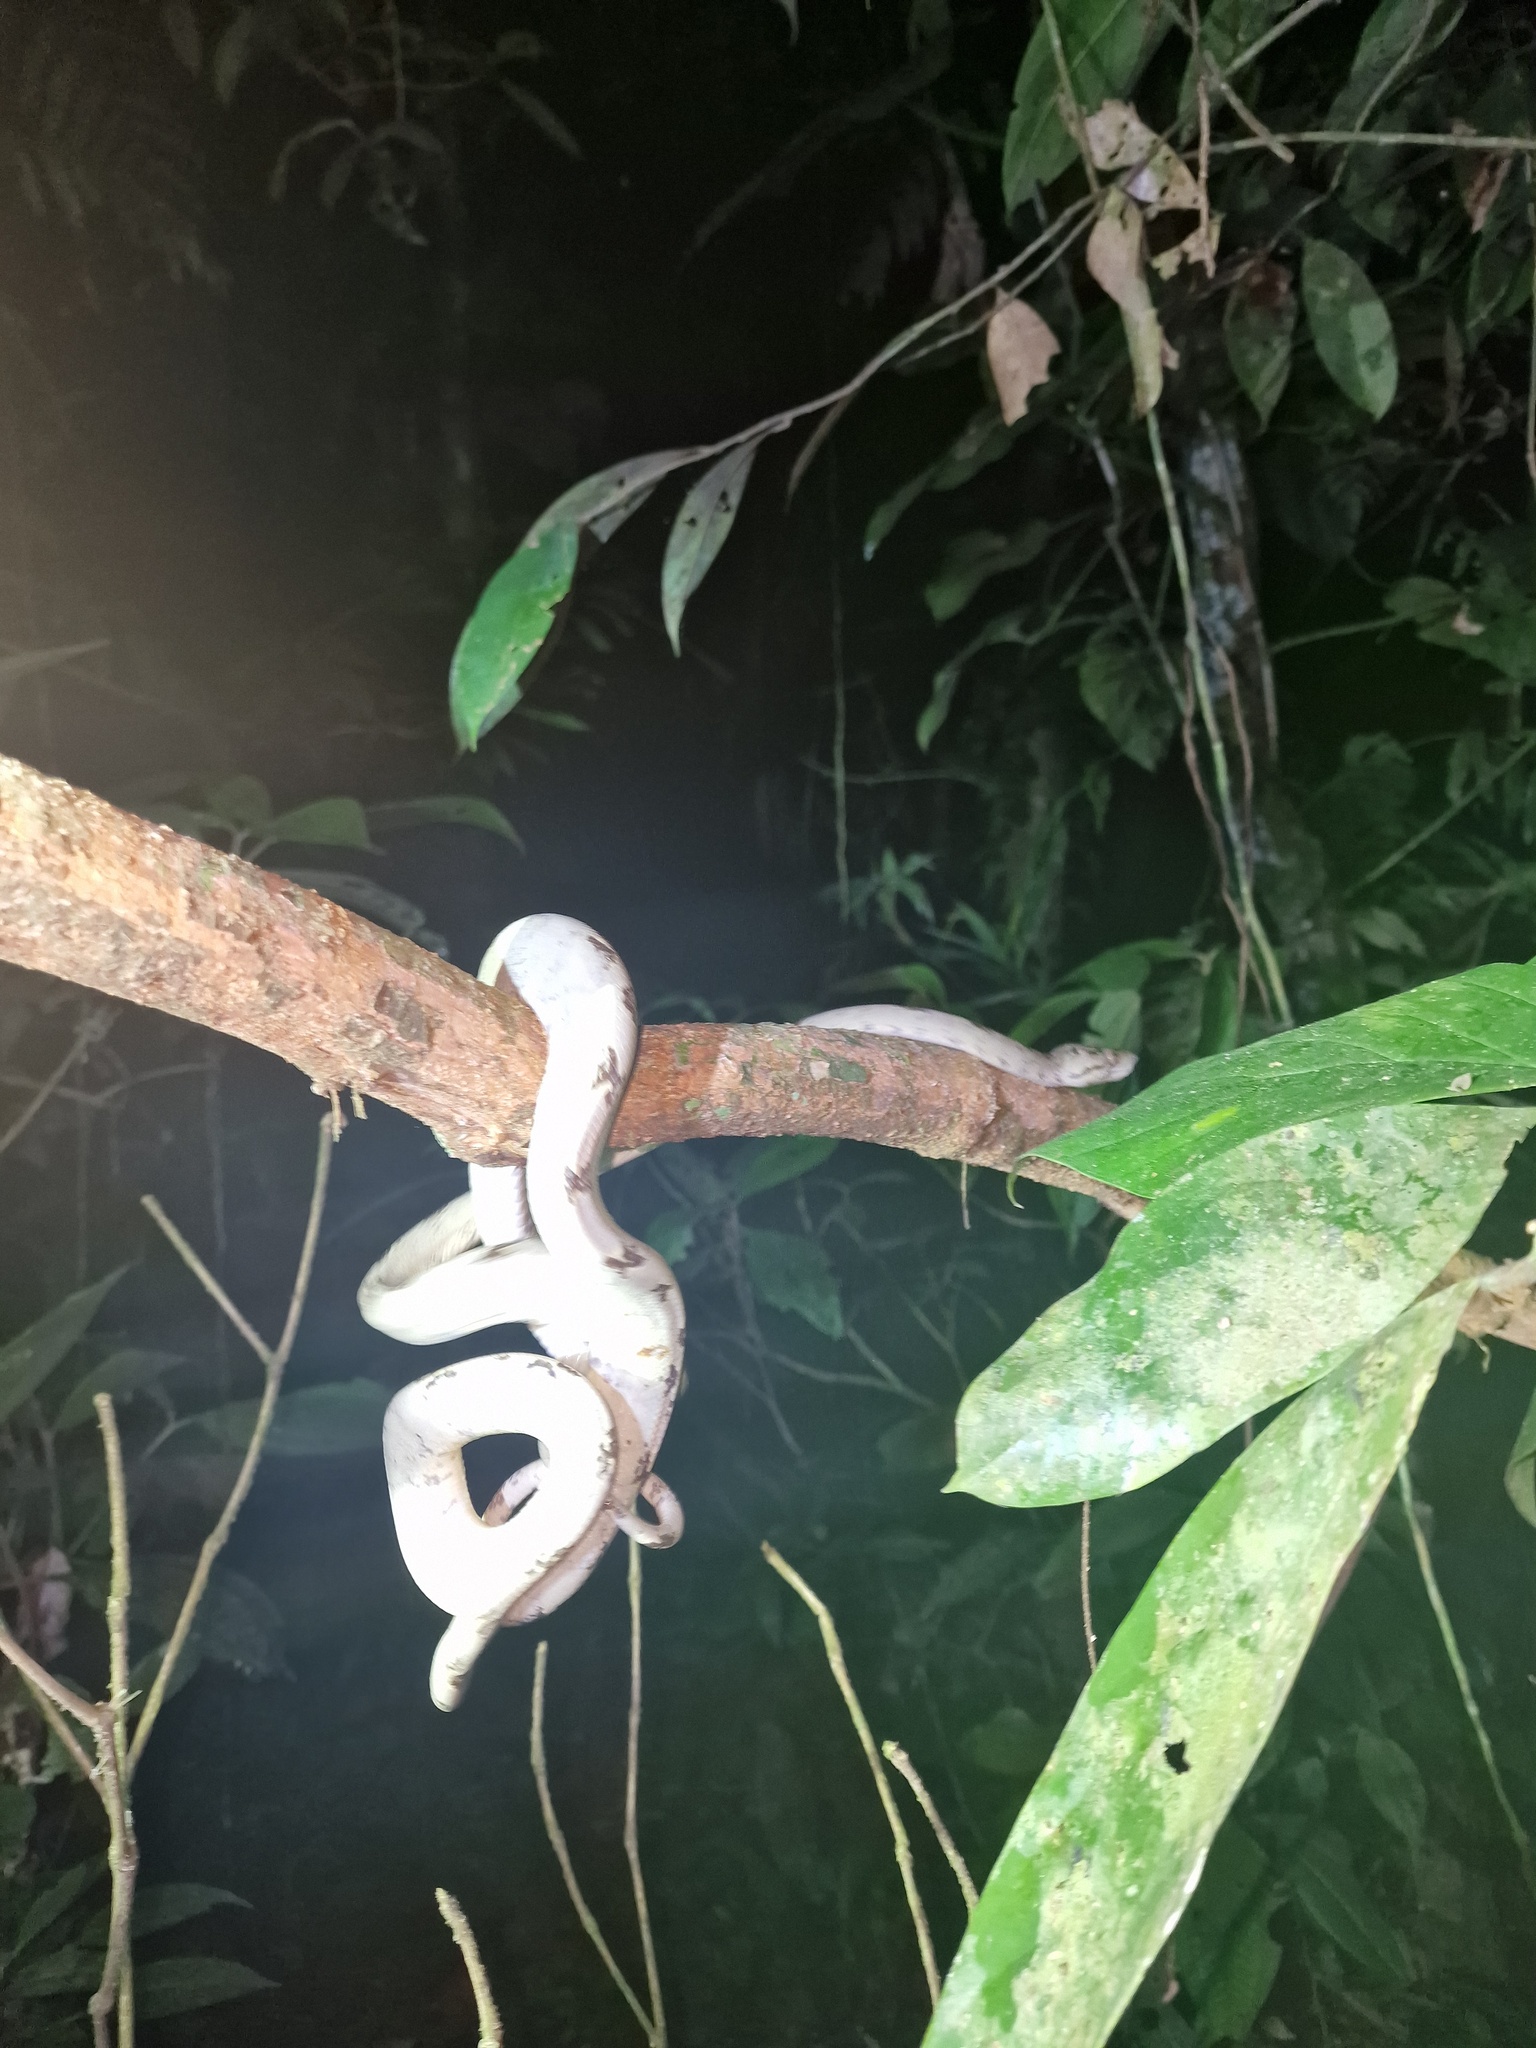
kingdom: Animalia
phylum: Chordata
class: Squamata
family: Boidae
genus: Corallus
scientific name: Corallus hortulana
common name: Garden tree boa
